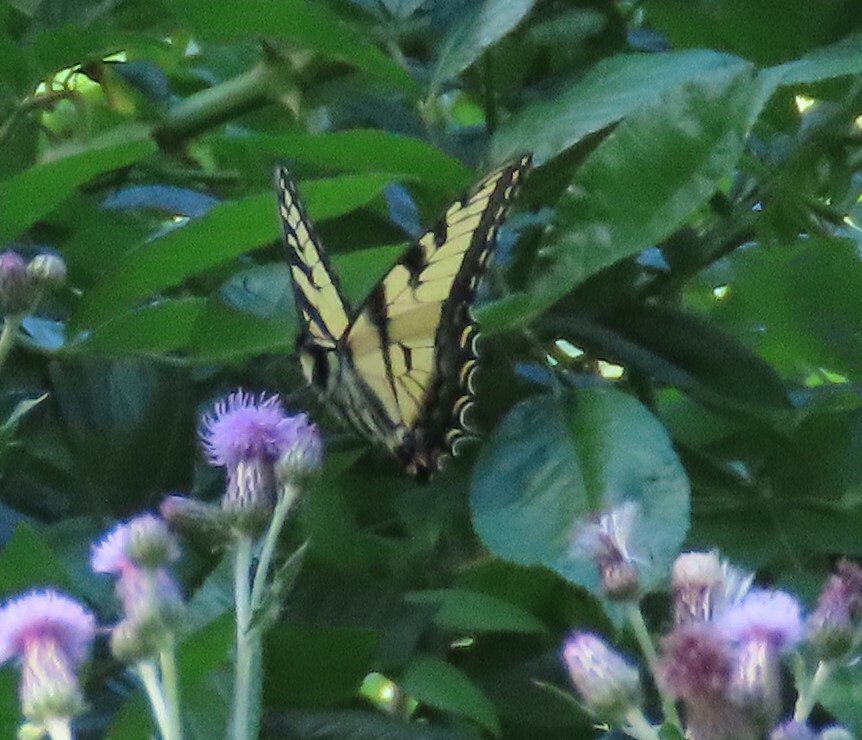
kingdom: Animalia
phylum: Arthropoda
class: Insecta
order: Lepidoptera
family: Papilionidae
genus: Papilio
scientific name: Papilio glaucus
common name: Tiger swallowtail
